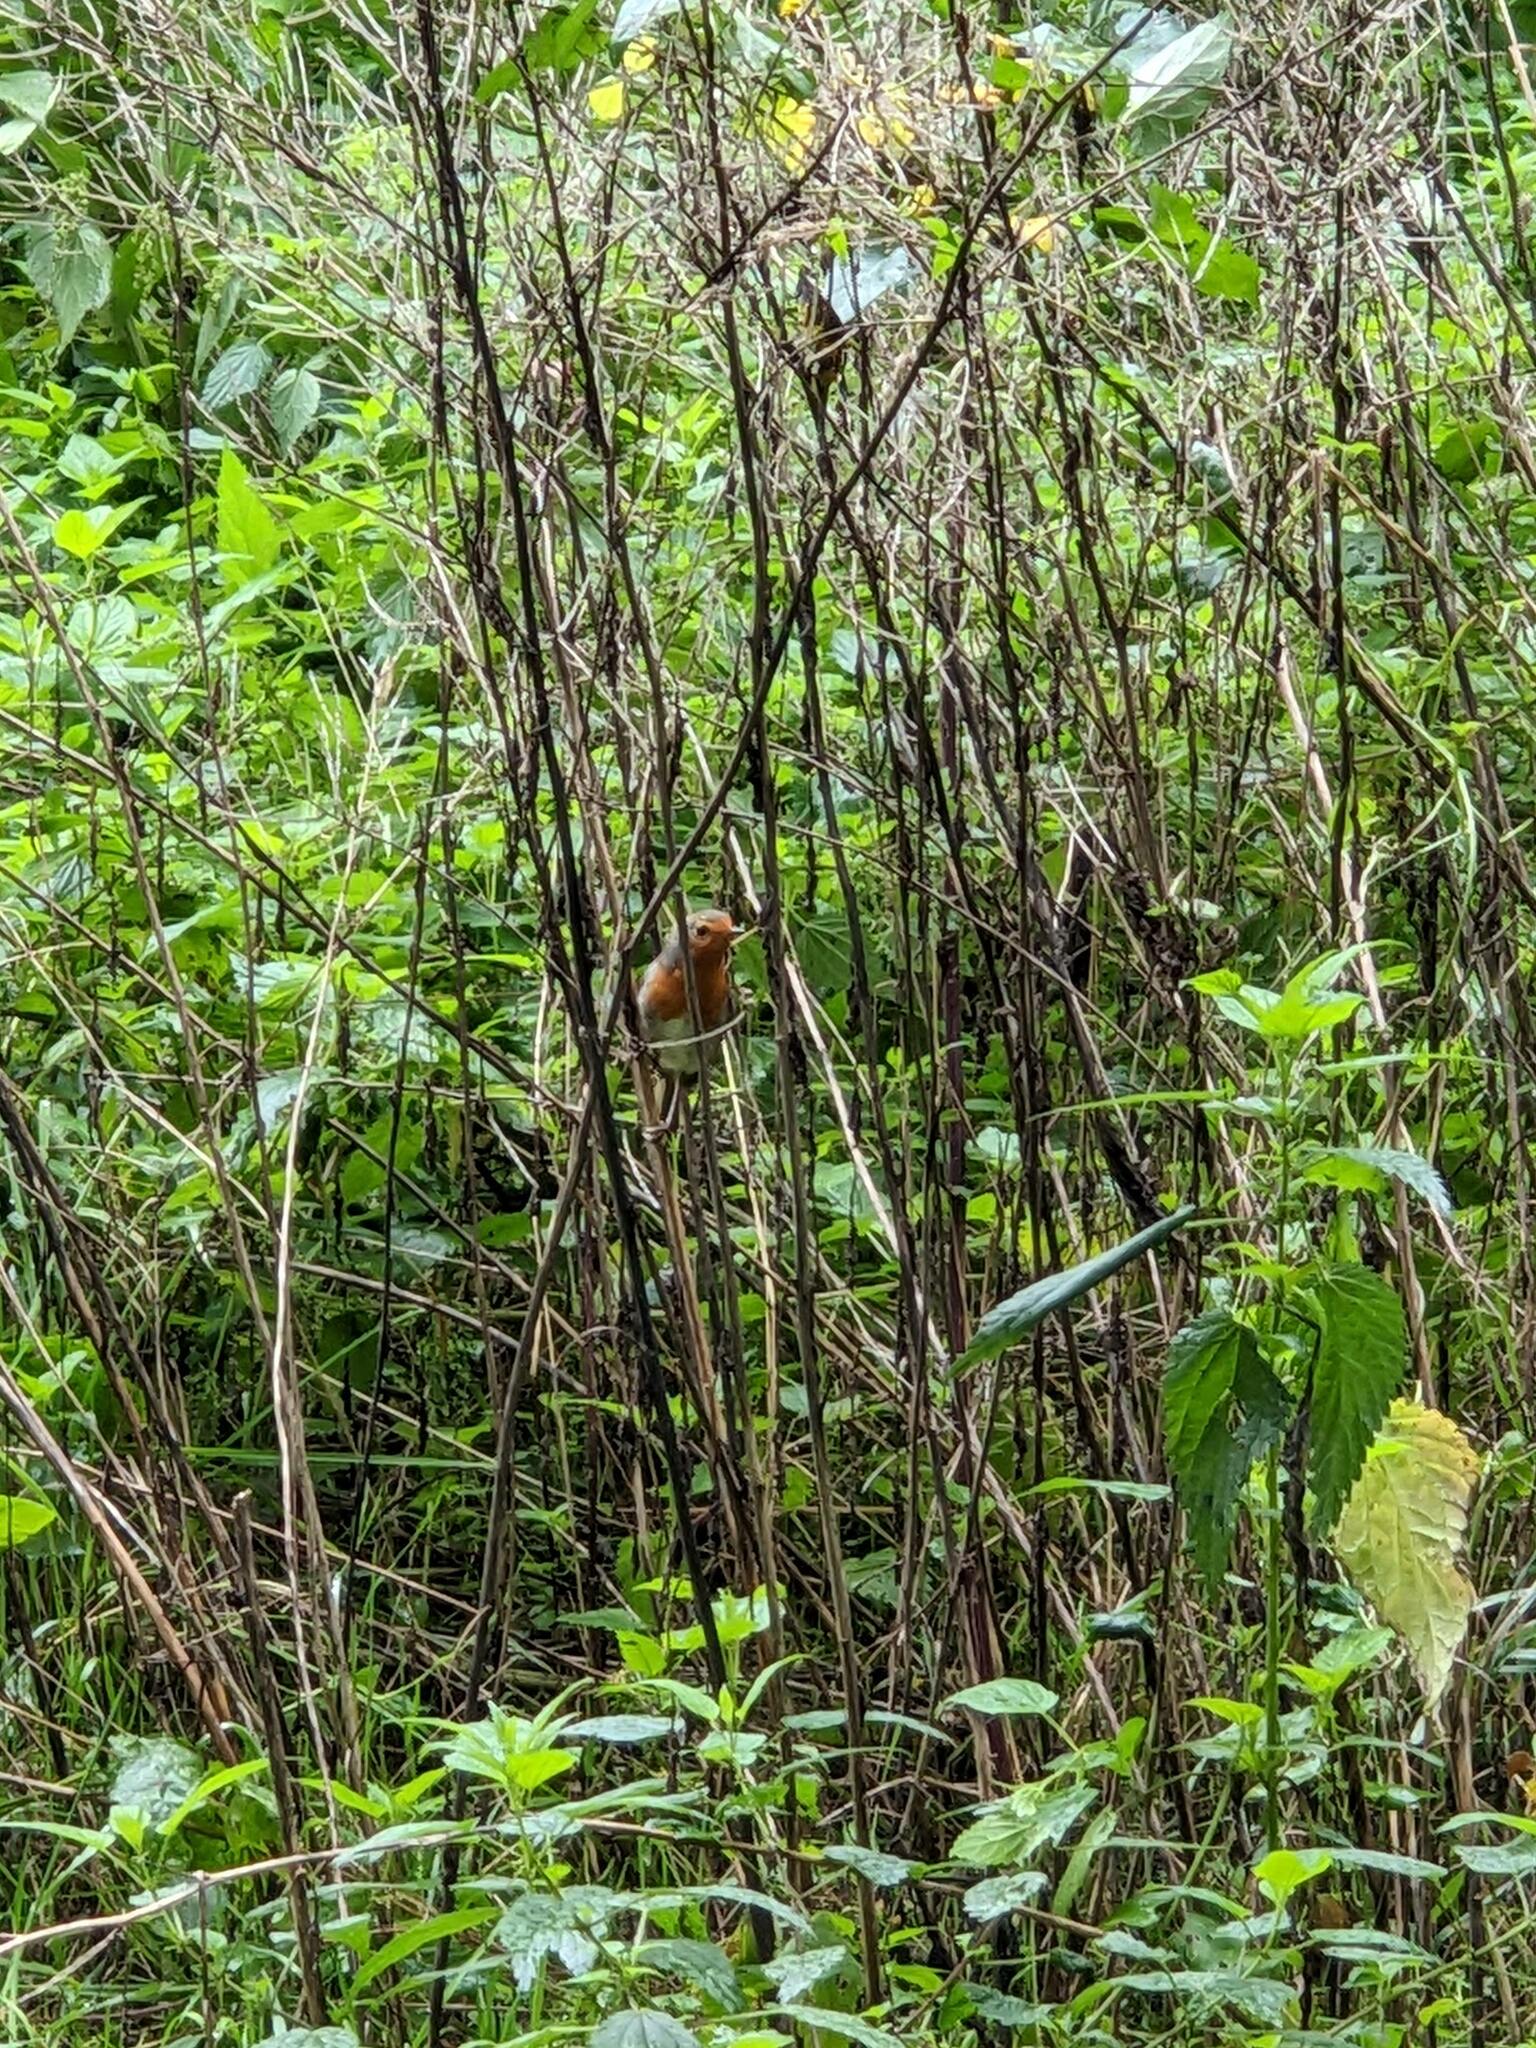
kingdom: Animalia
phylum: Chordata
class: Aves
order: Passeriformes
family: Muscicapidae
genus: Erithacus
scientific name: Erithacus rubecula
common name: European robin
